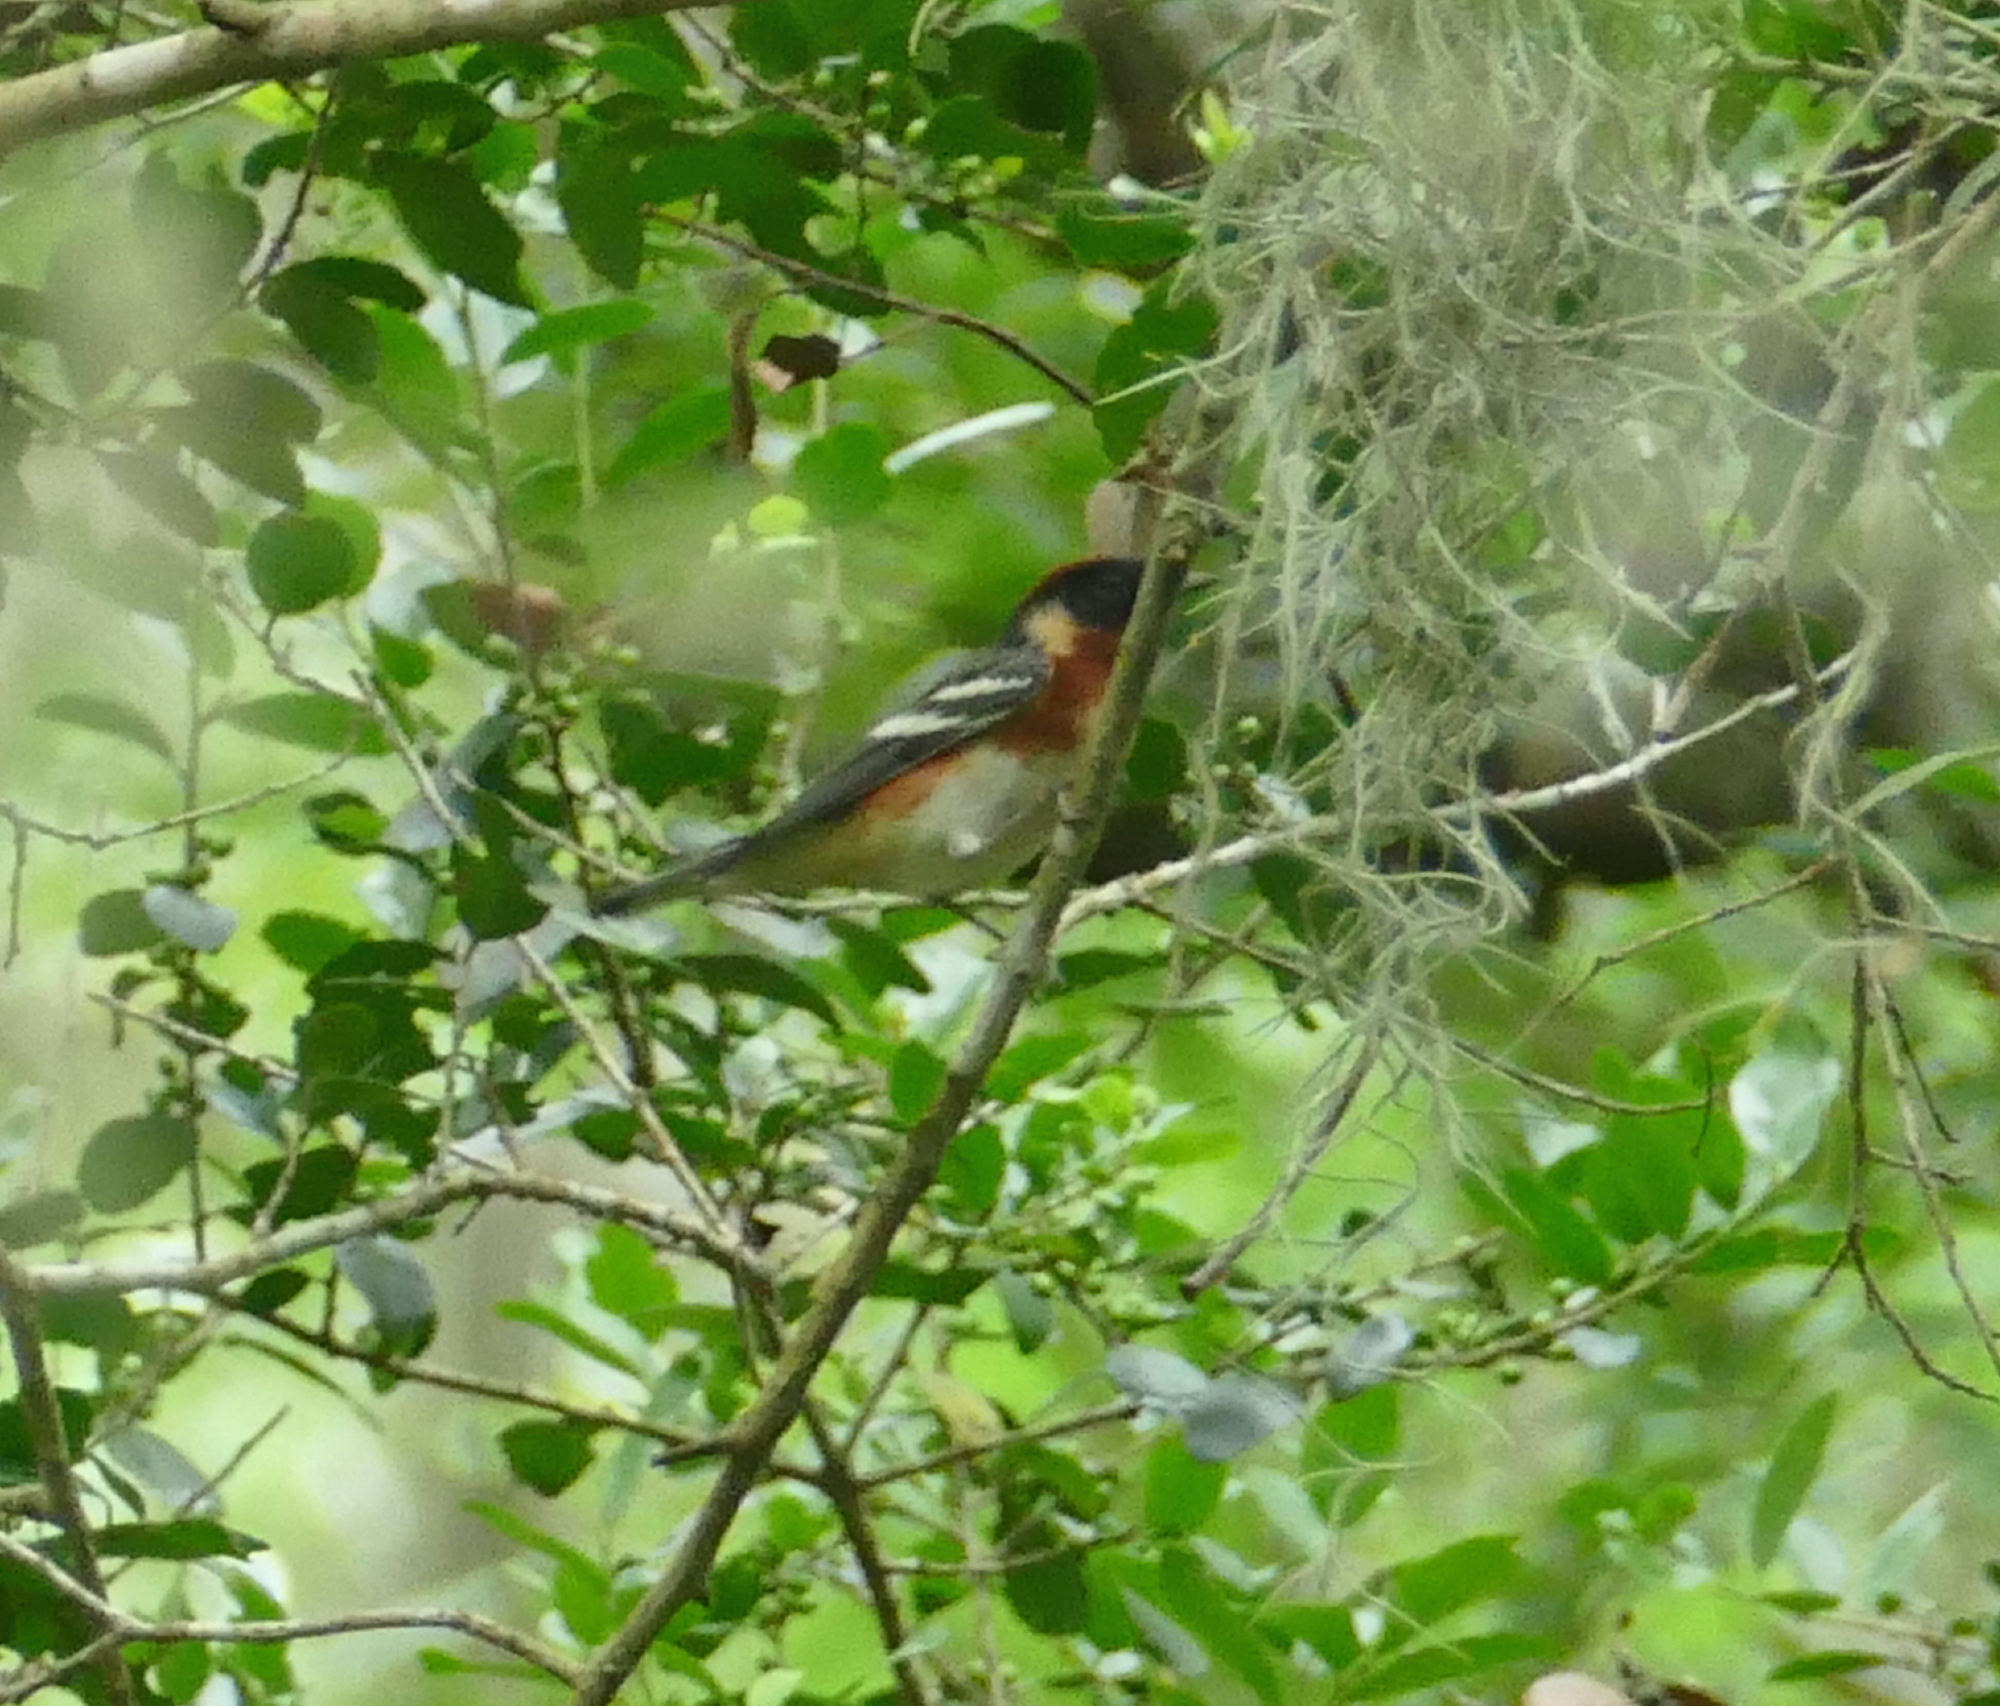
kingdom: Animalia
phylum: Chordata
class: Aves
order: Passeriformes
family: Parulidae
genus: Setophaga
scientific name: Setophaga castanea
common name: Bay-breasted warbler
